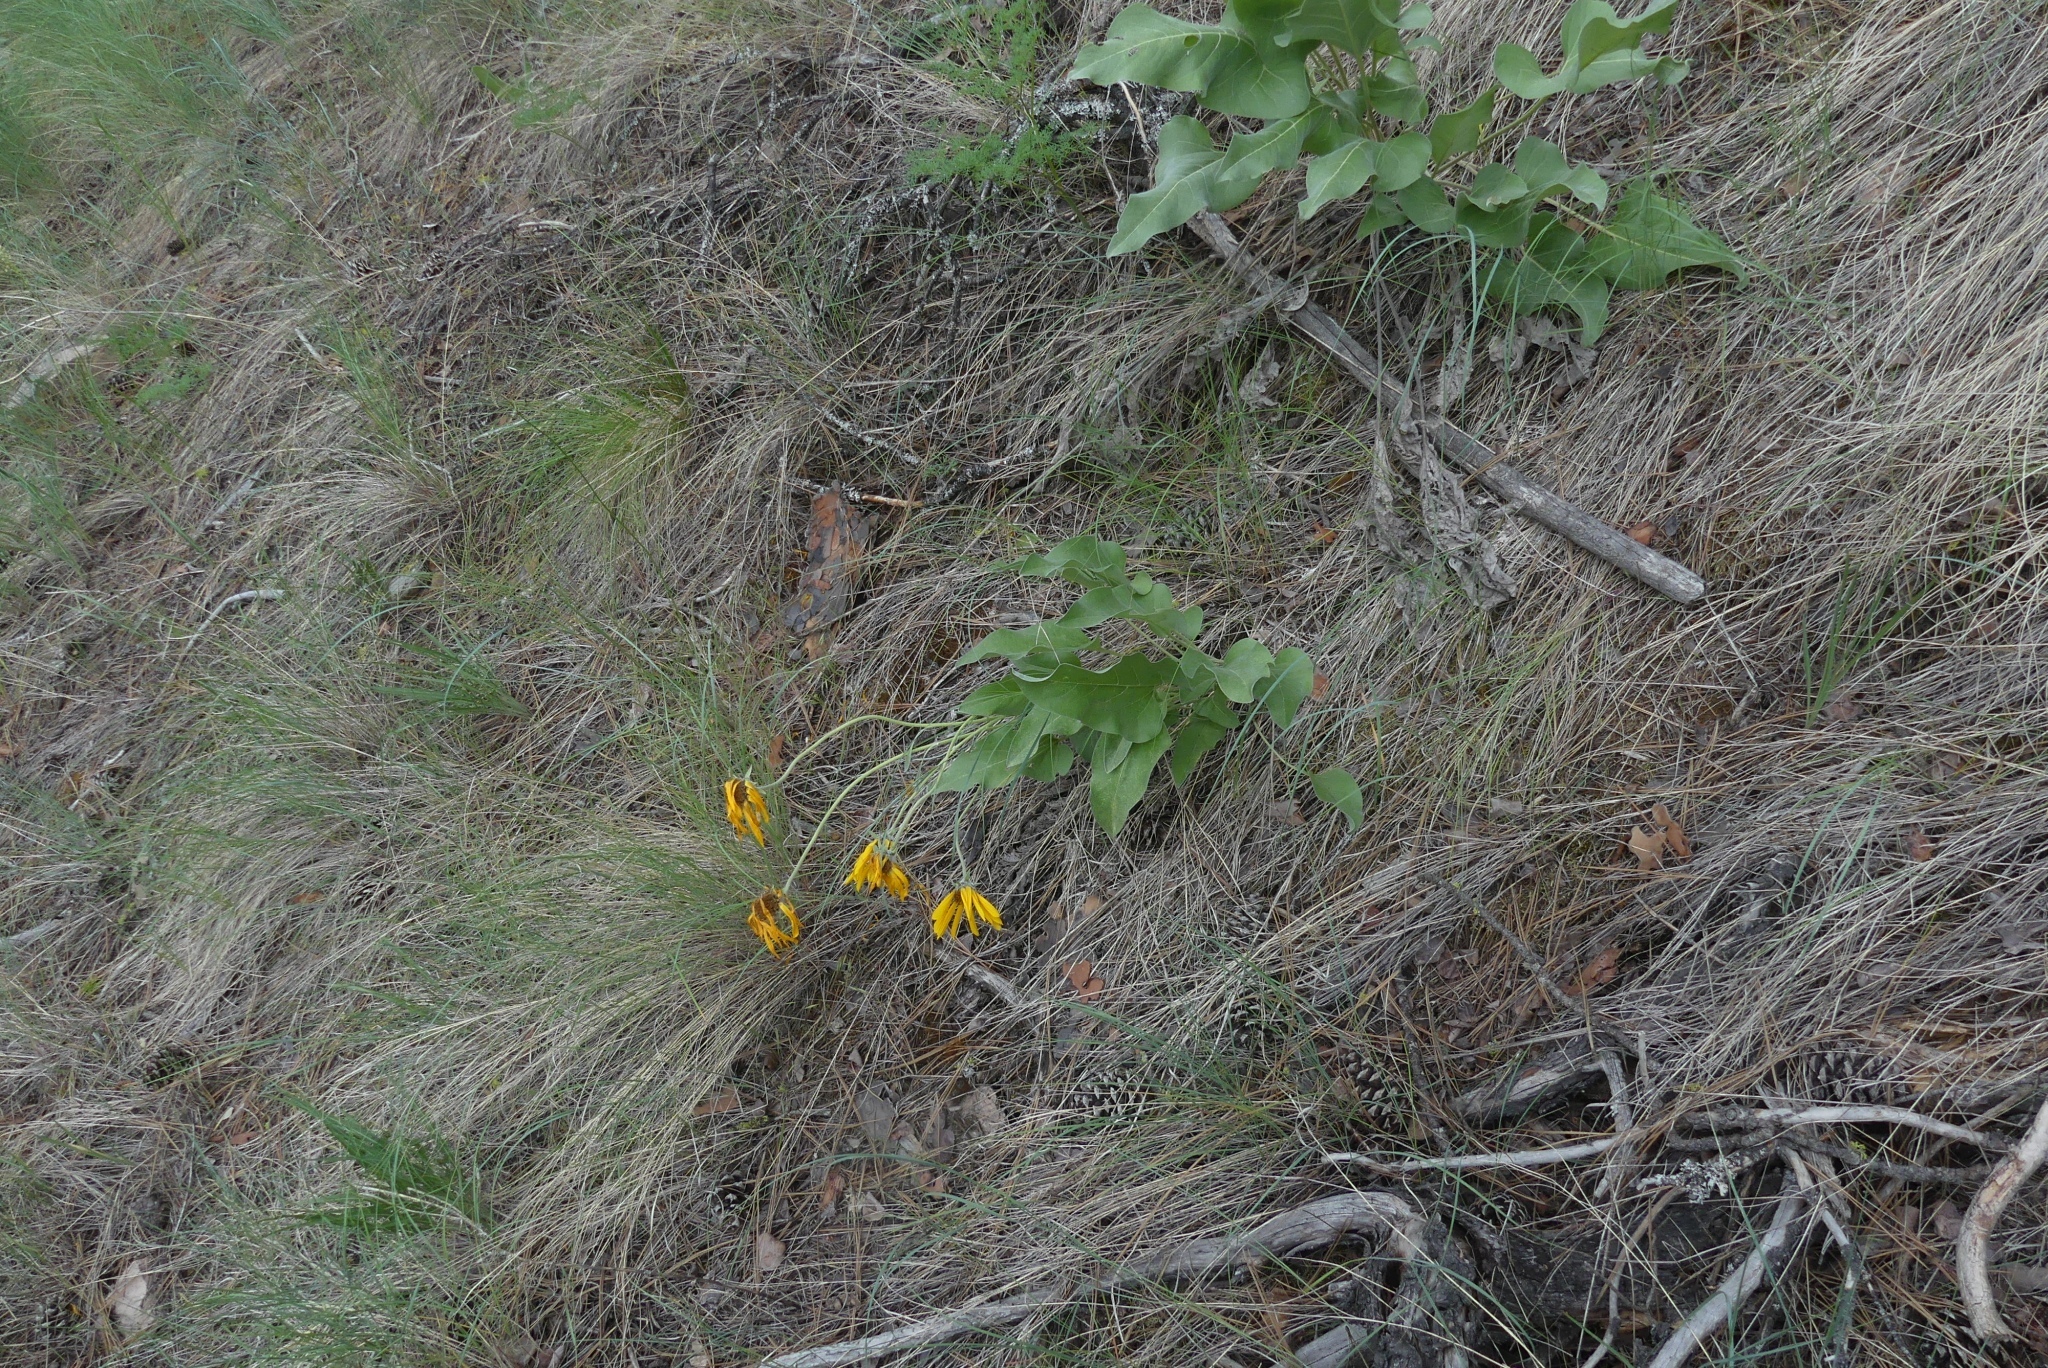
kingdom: Plantae
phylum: Tracheophyta
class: Magnoliopsida
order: Asterales
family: Asteraceae
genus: Wyethia
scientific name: Wyethia sagittata
